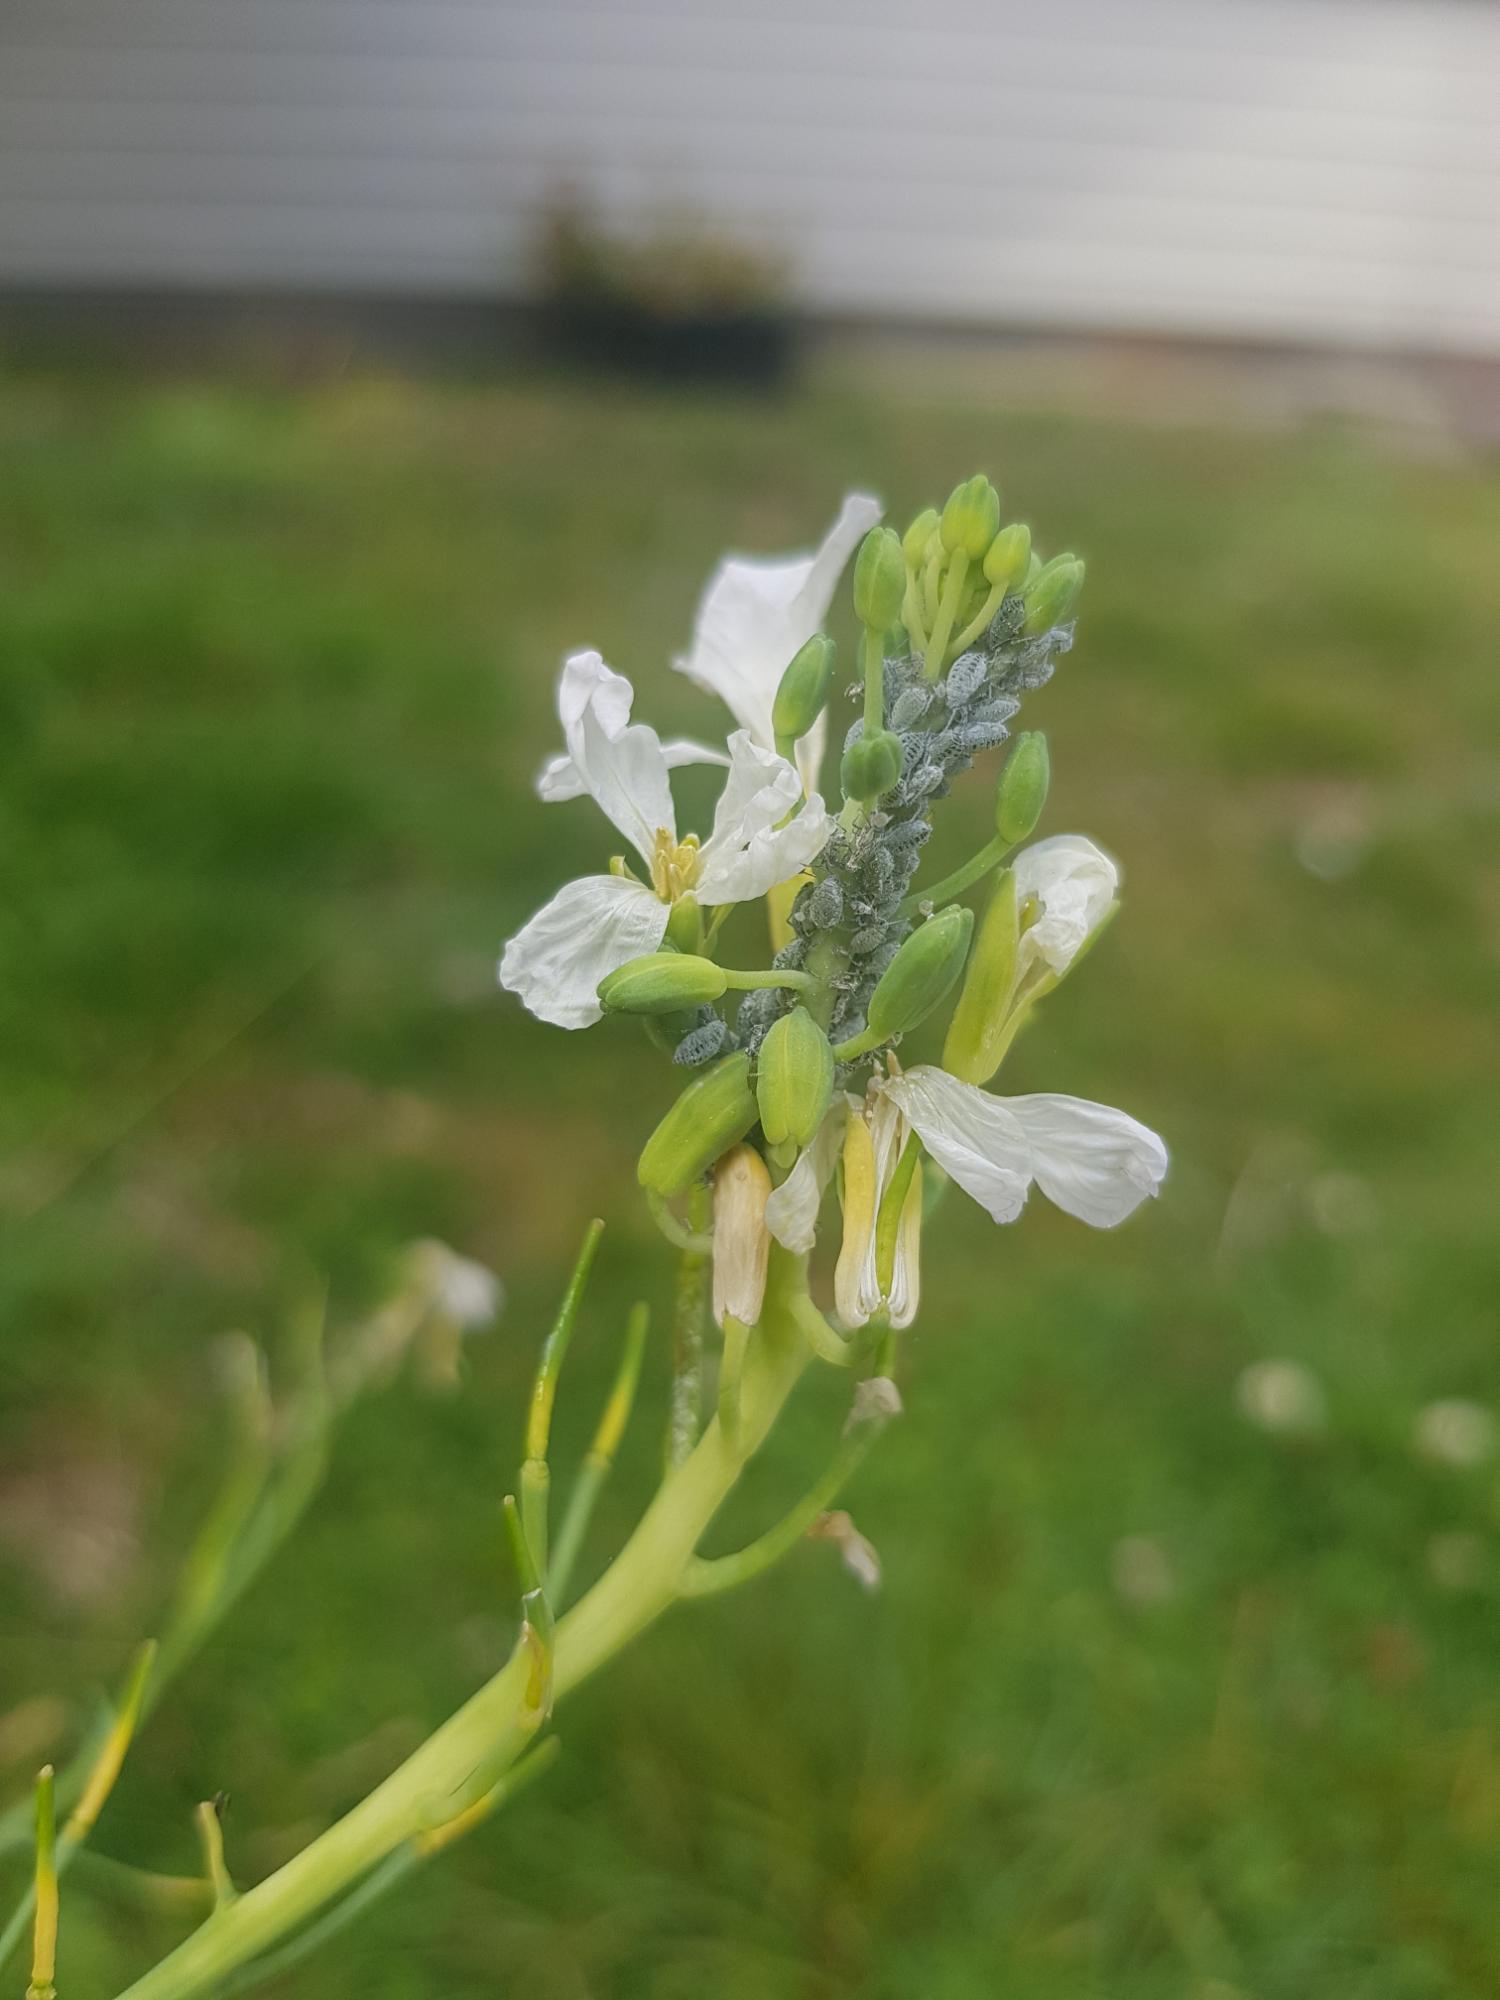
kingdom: Animalia
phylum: Arthropoda
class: Insecta
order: Hemiptera
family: Aphididae
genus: Brevicoryne
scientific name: Brevicoryne brassicae
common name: Cabbage aphid
